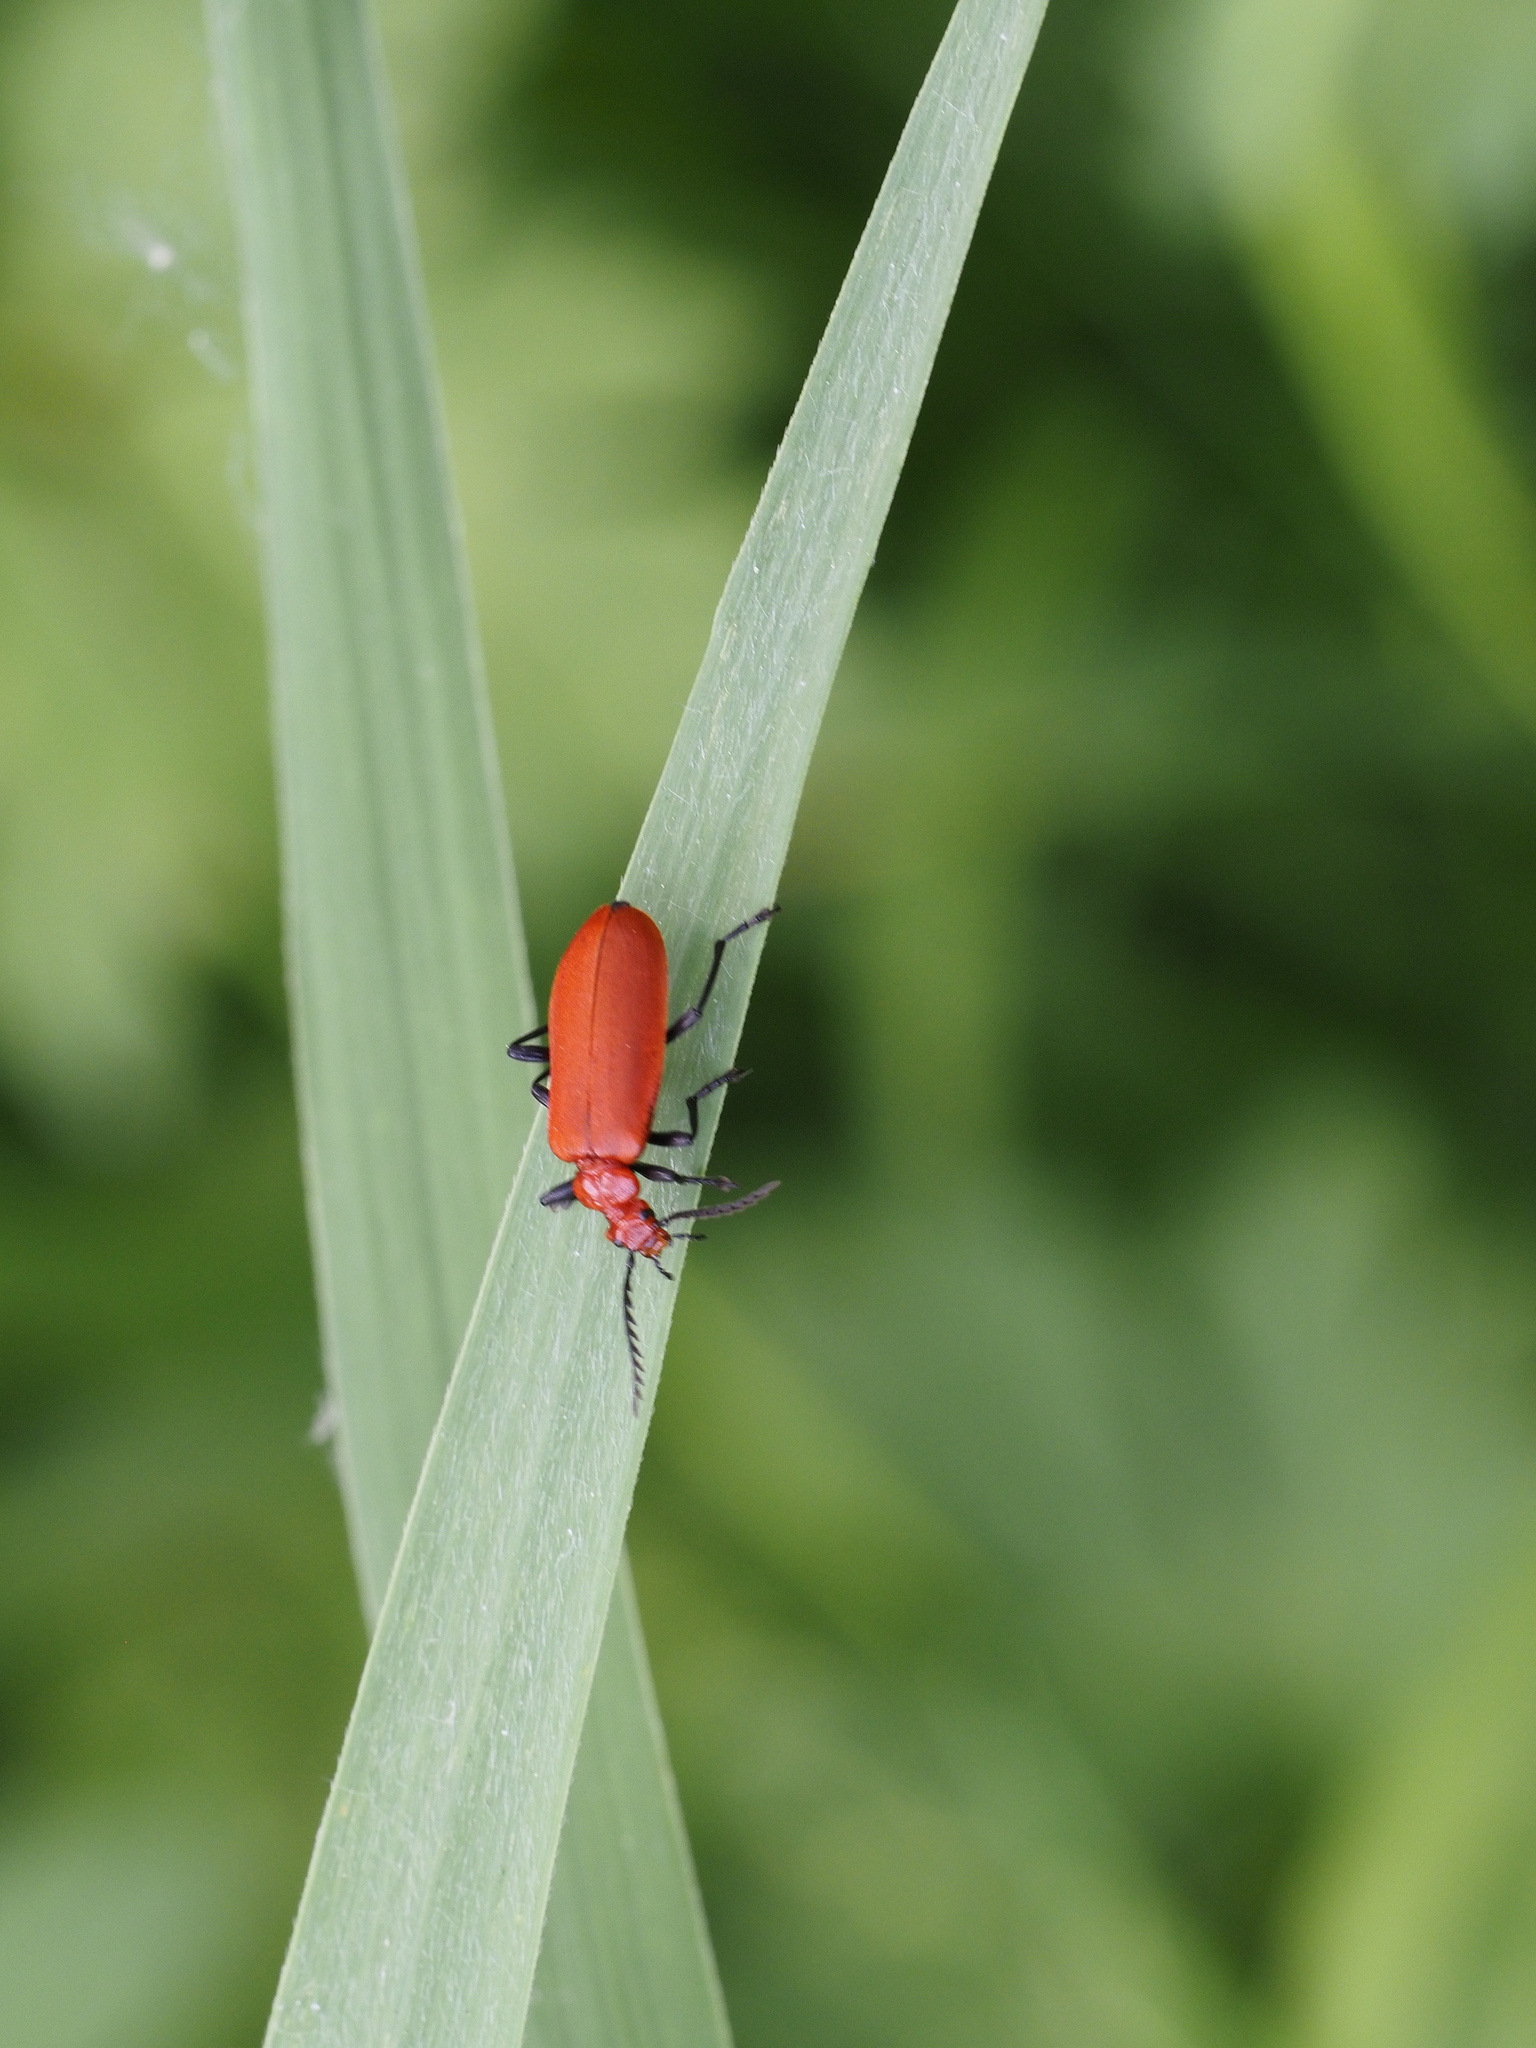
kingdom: Animalia
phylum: Arthropoda
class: Insecta
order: Coleoptera
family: Pyrochroidae
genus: Pyrochroa
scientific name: Pyrochroa serraticornis
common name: Red-headed cardinal beetle
